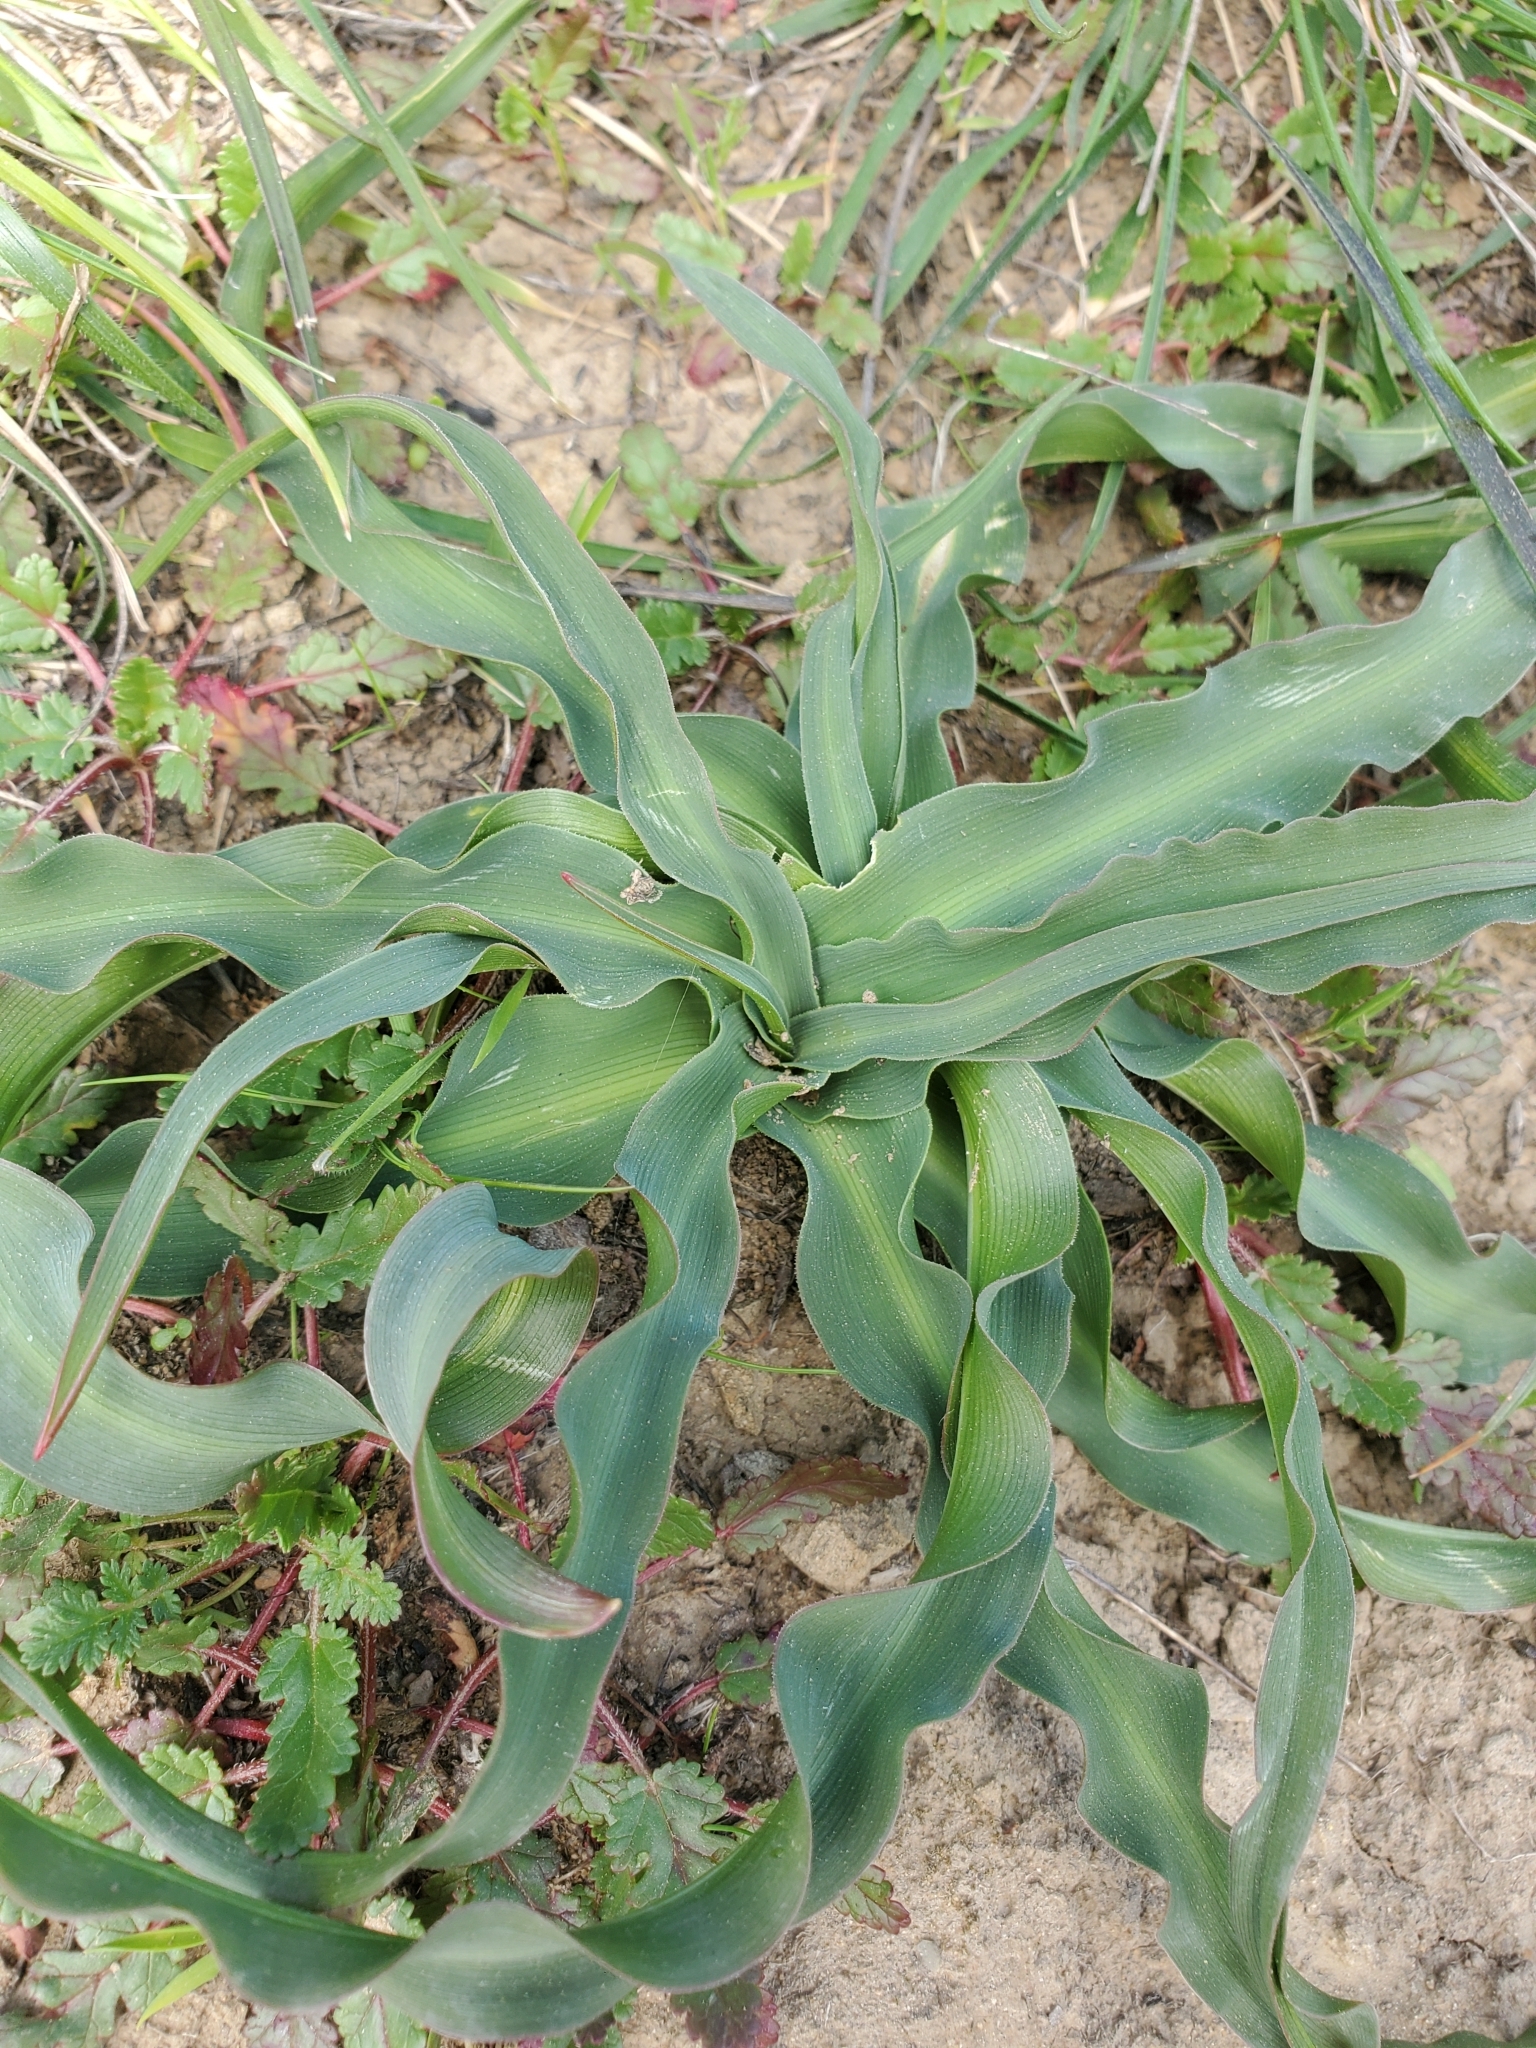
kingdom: Plantae
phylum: Tracheophyta
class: Liliopsida
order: Asparagales
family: Asparagaceae
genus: Chlorogalum
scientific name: Chlorogalum pomeridianum
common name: Amole
